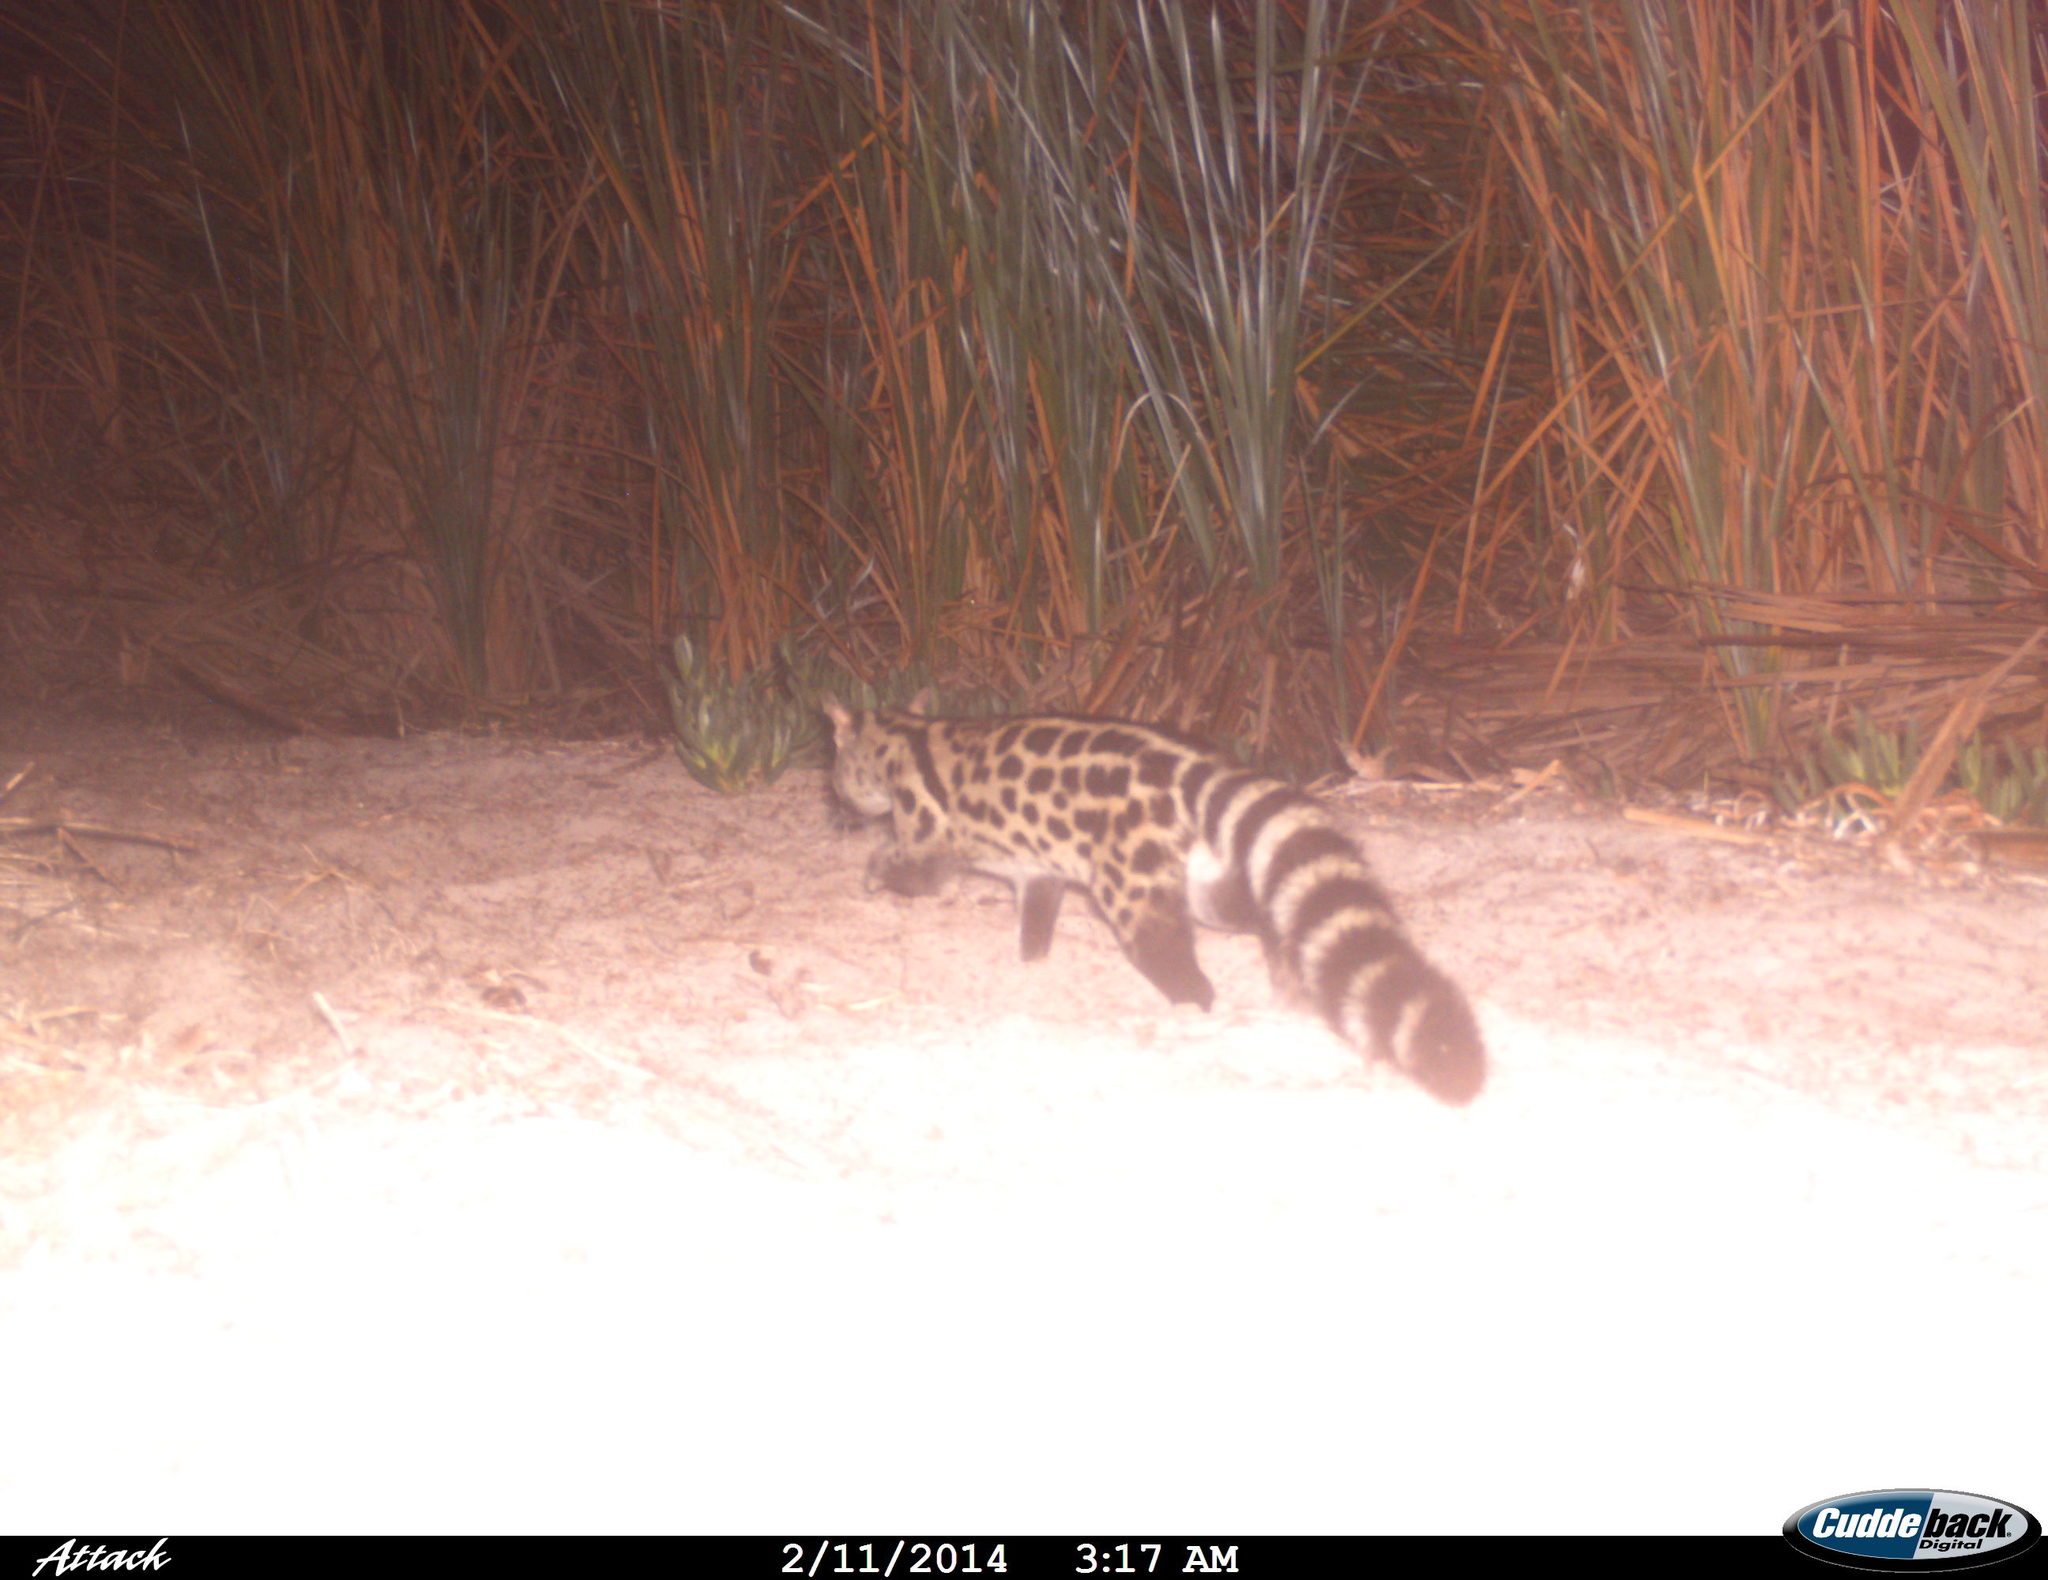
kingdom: Animalia
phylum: Chordata
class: Mammalia
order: Carnivora
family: Viverridae
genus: Genetta
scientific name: Genetta tigrina
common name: Cape genet
